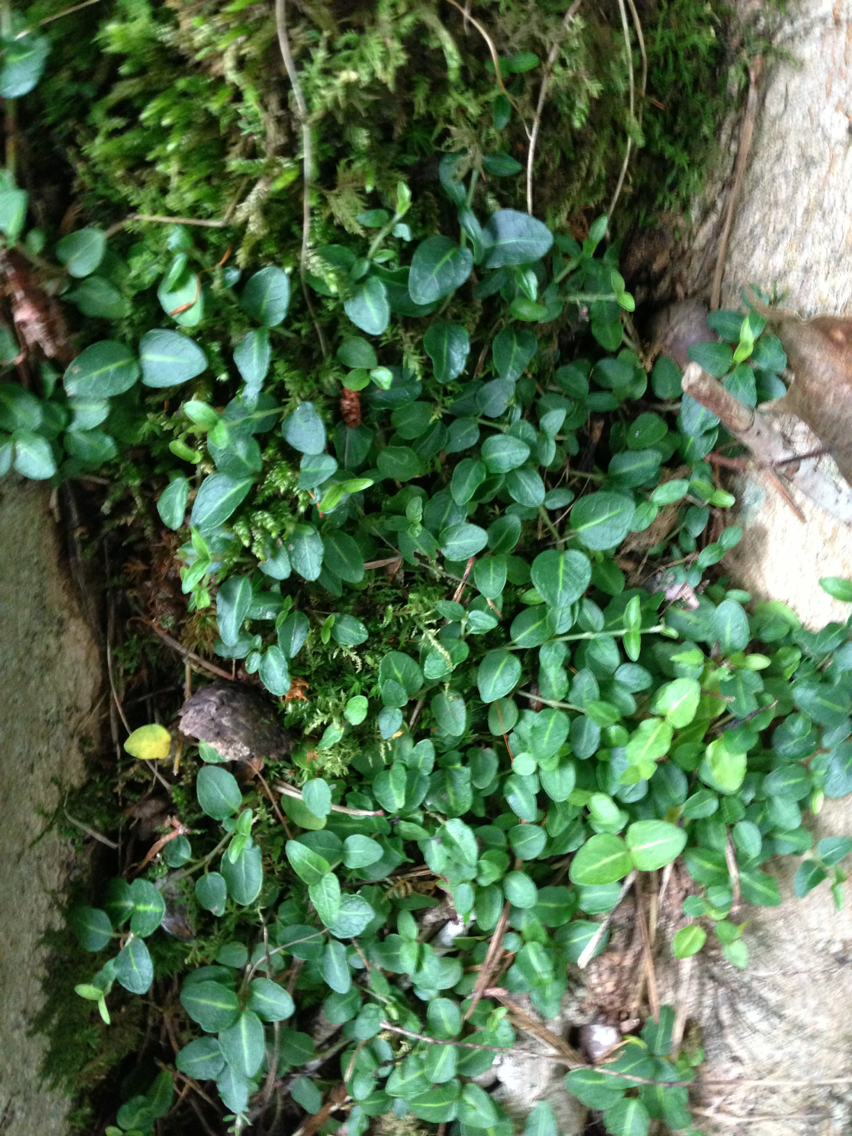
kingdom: Plantae
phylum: Tracheophyta
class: Magnoliopsida
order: Gentianales
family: Rubiaceae
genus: Mitchella
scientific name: Mitchella repens
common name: Partridge-berry
